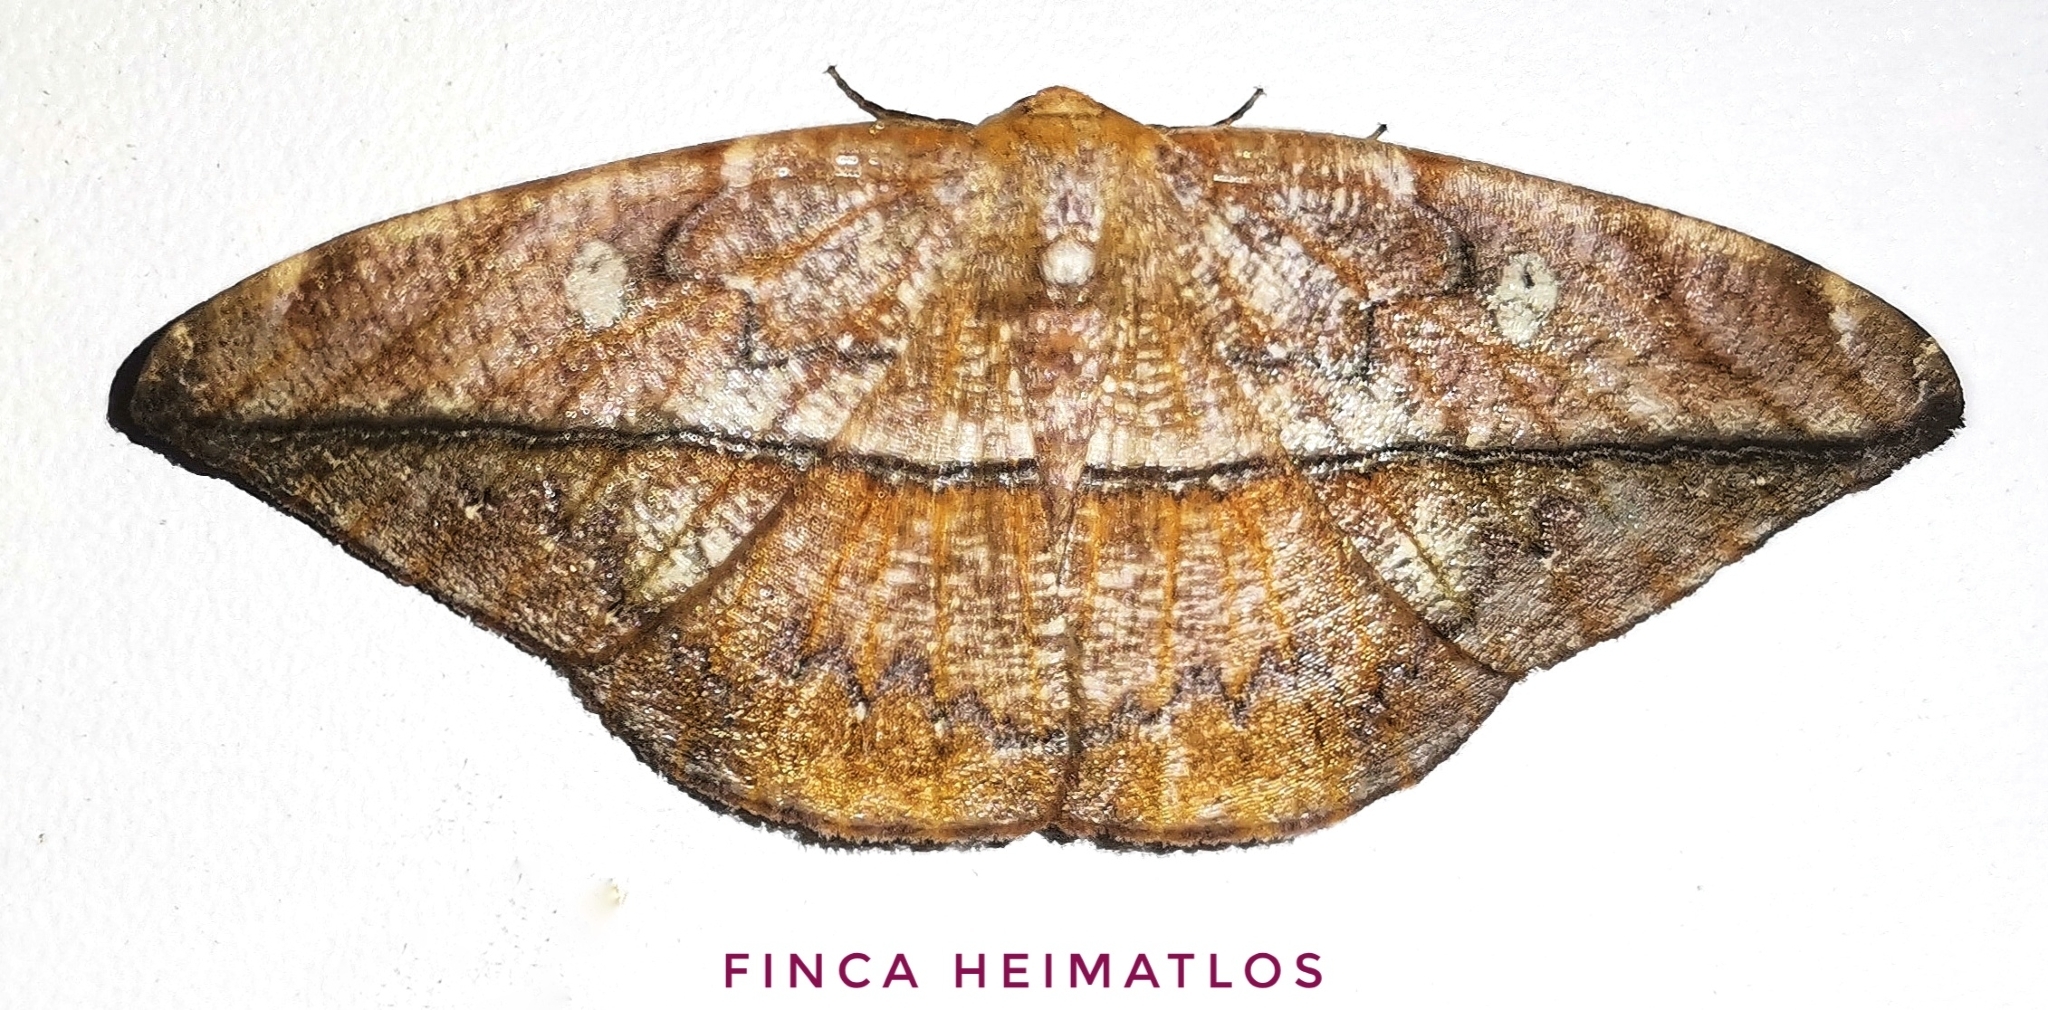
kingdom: Animalia
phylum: Arthropoda
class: Insecta
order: Lepidoptera
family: Geometridae
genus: Oxydia
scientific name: Oxydia translinquens
